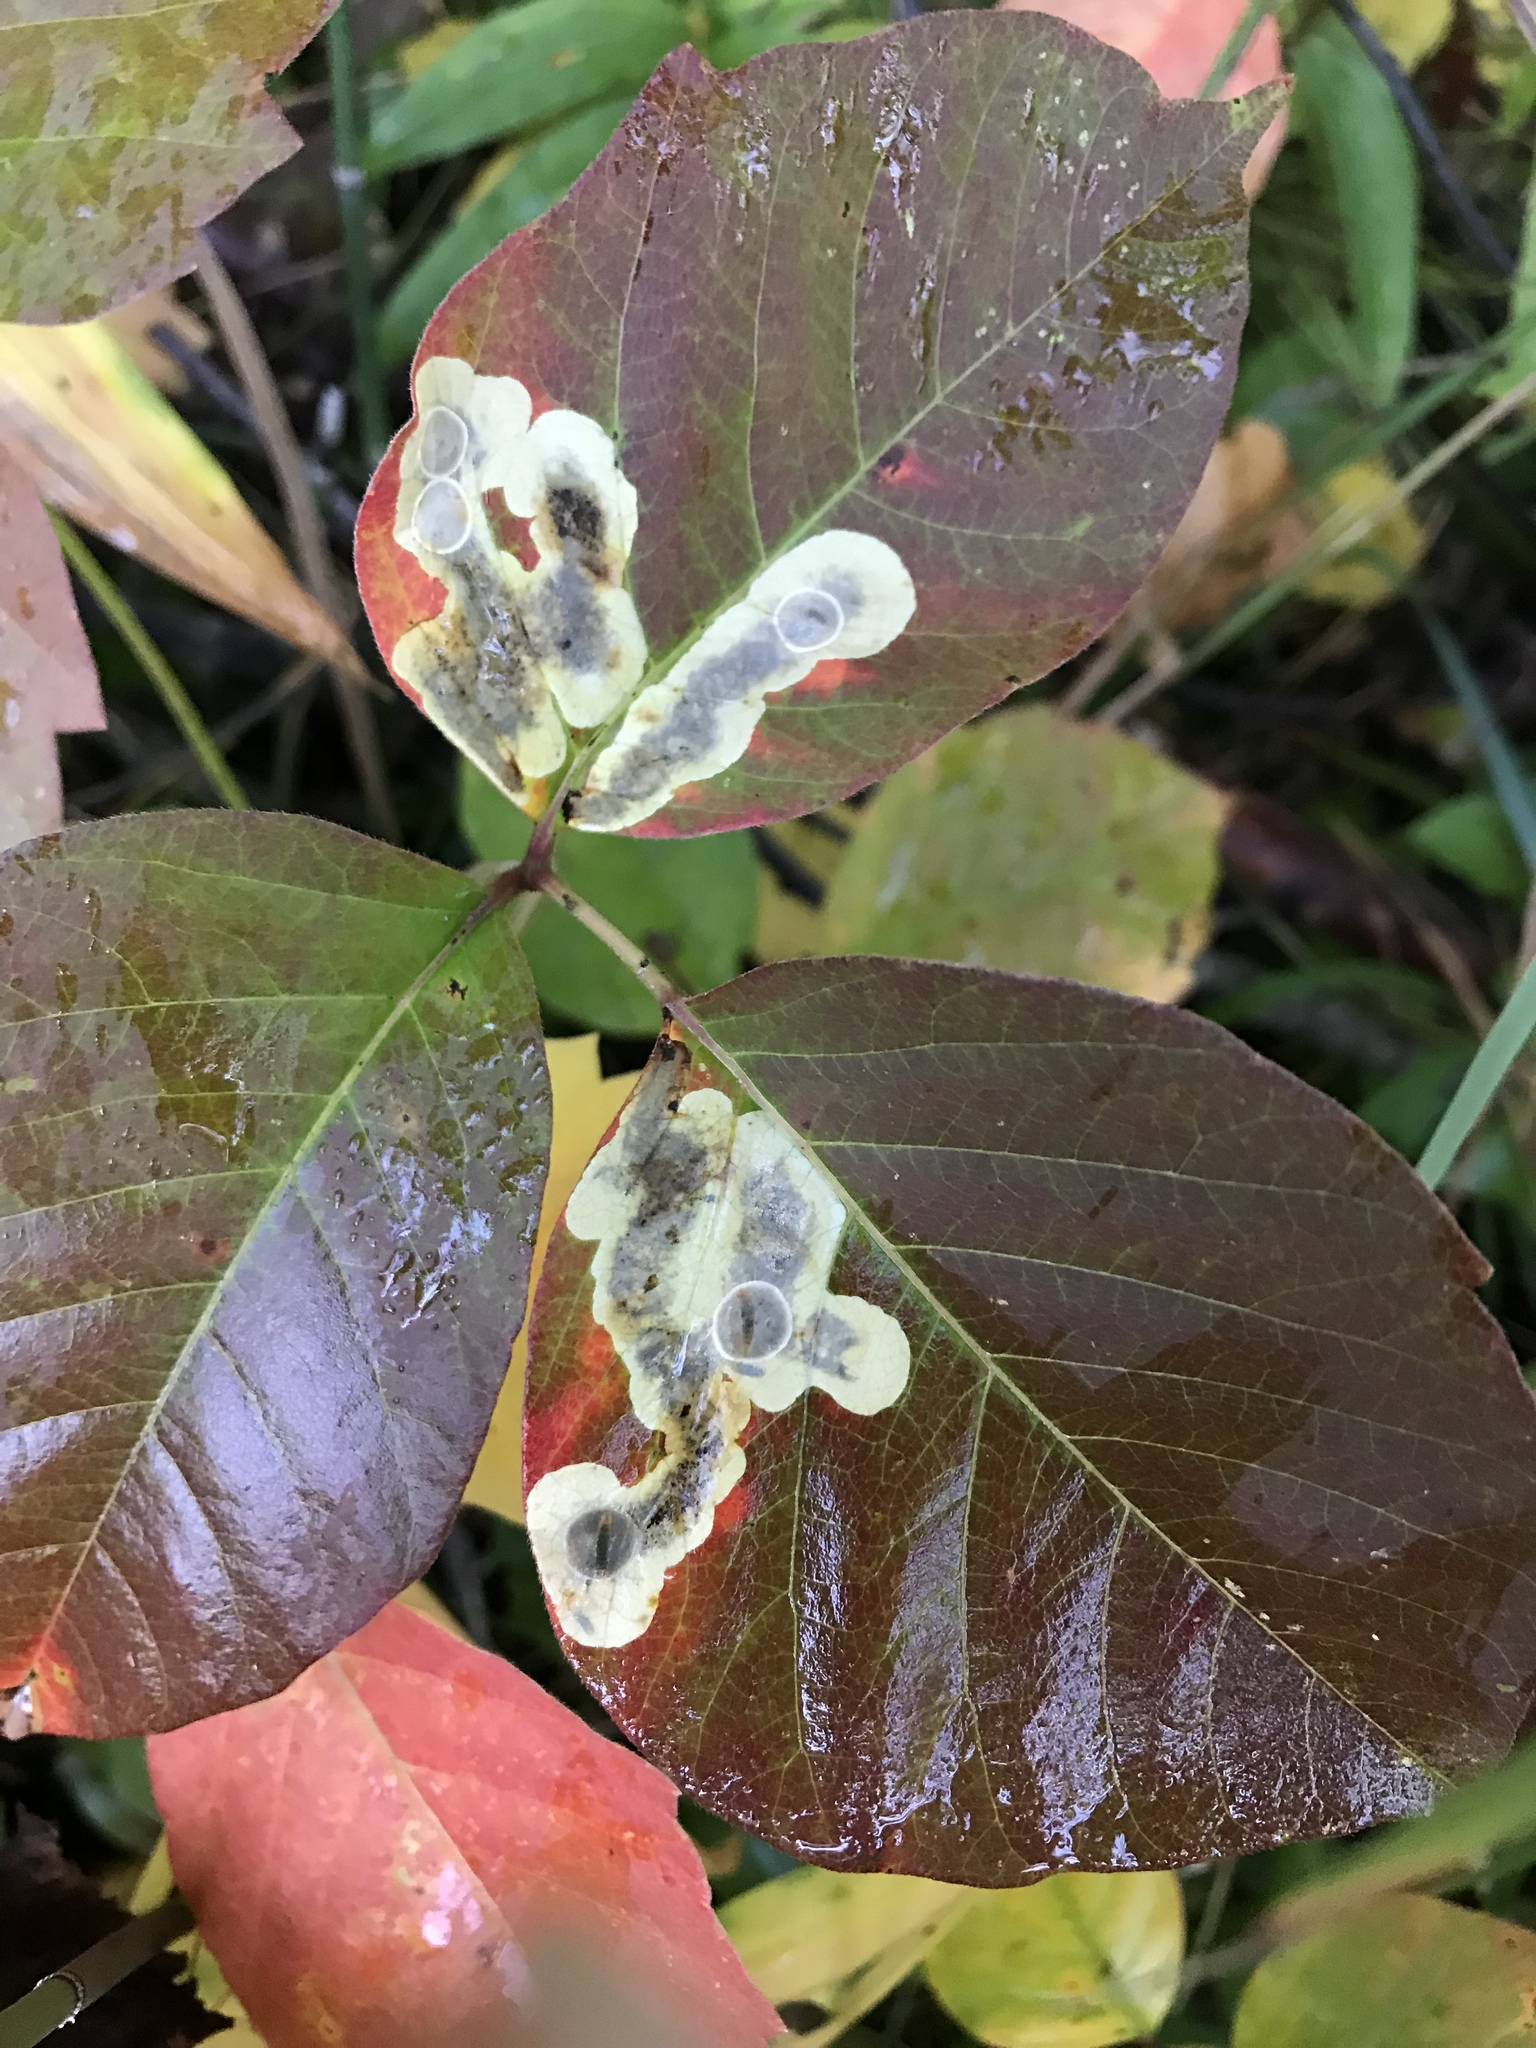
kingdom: Animalia
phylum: Arthropoda
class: Insecta
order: Lepidoptera
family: Gracillariidae
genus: Cameraria
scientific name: Cameraria guttifinitella
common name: Poison ivy leaf-miner moth
